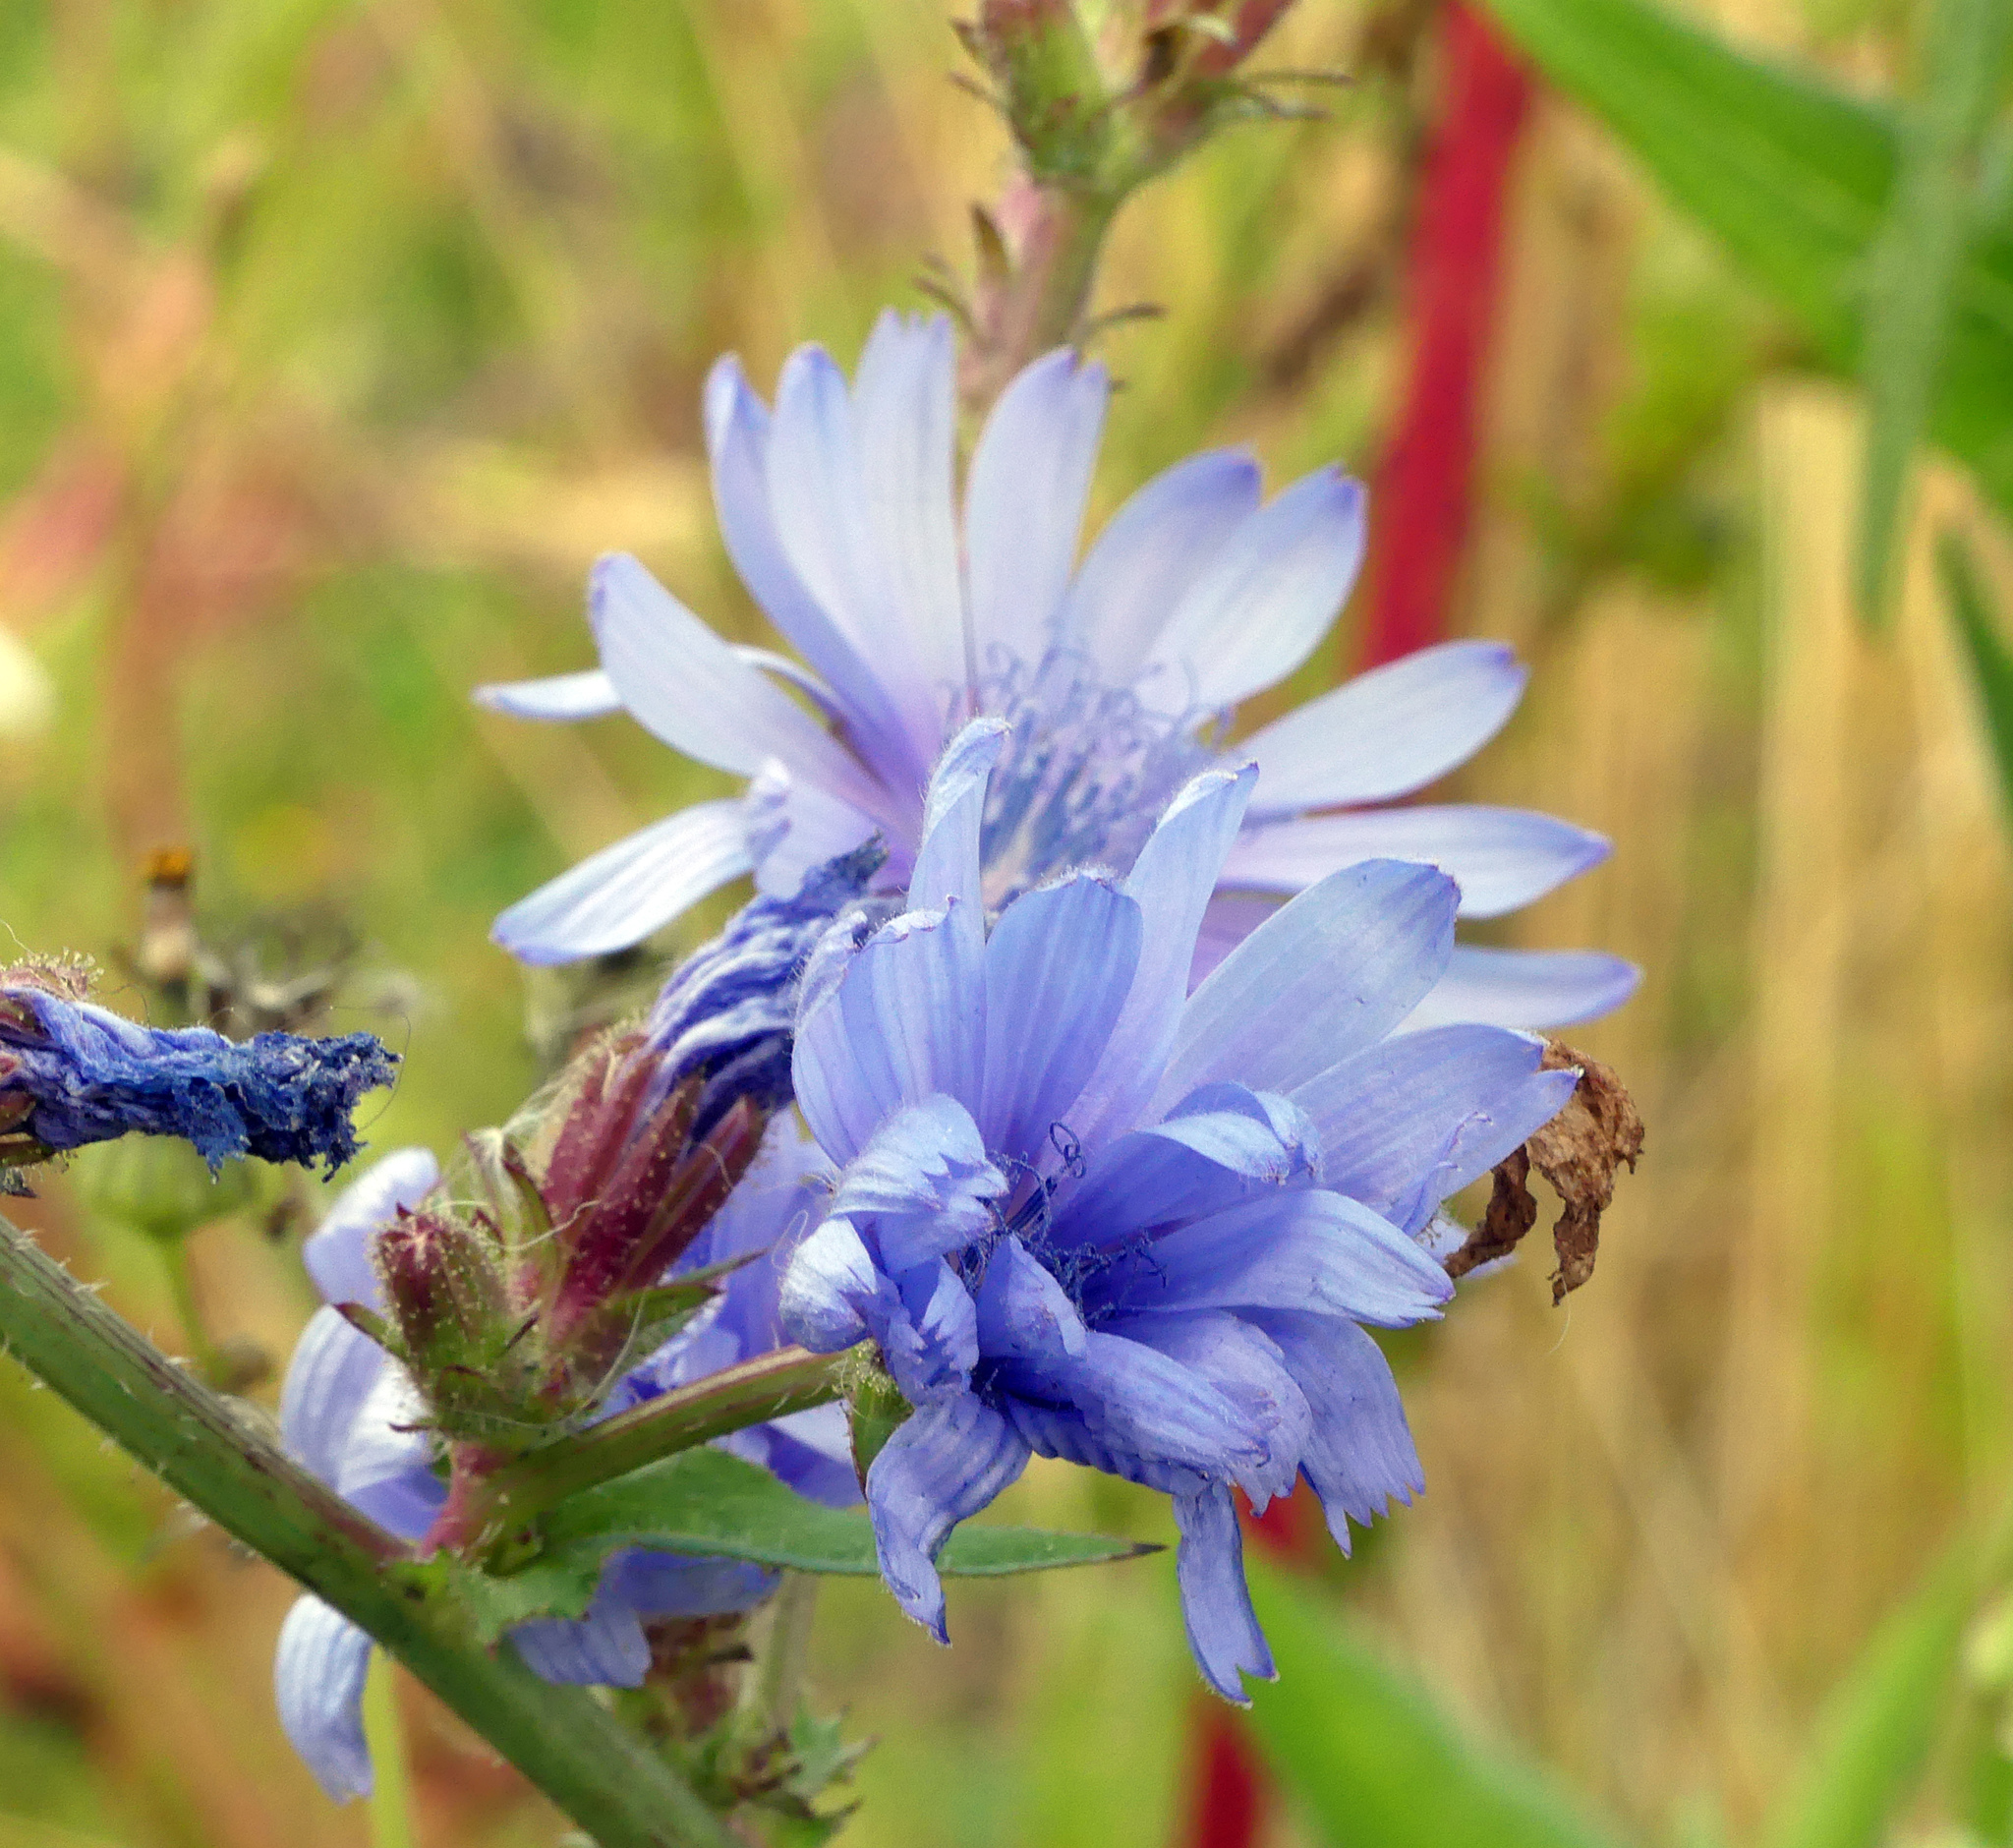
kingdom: Plantae
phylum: Tracheophyta
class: Magnoliopsida
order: Asterales
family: Asteraceae
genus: Cichorium
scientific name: Cichorium intybus
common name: Chicory
